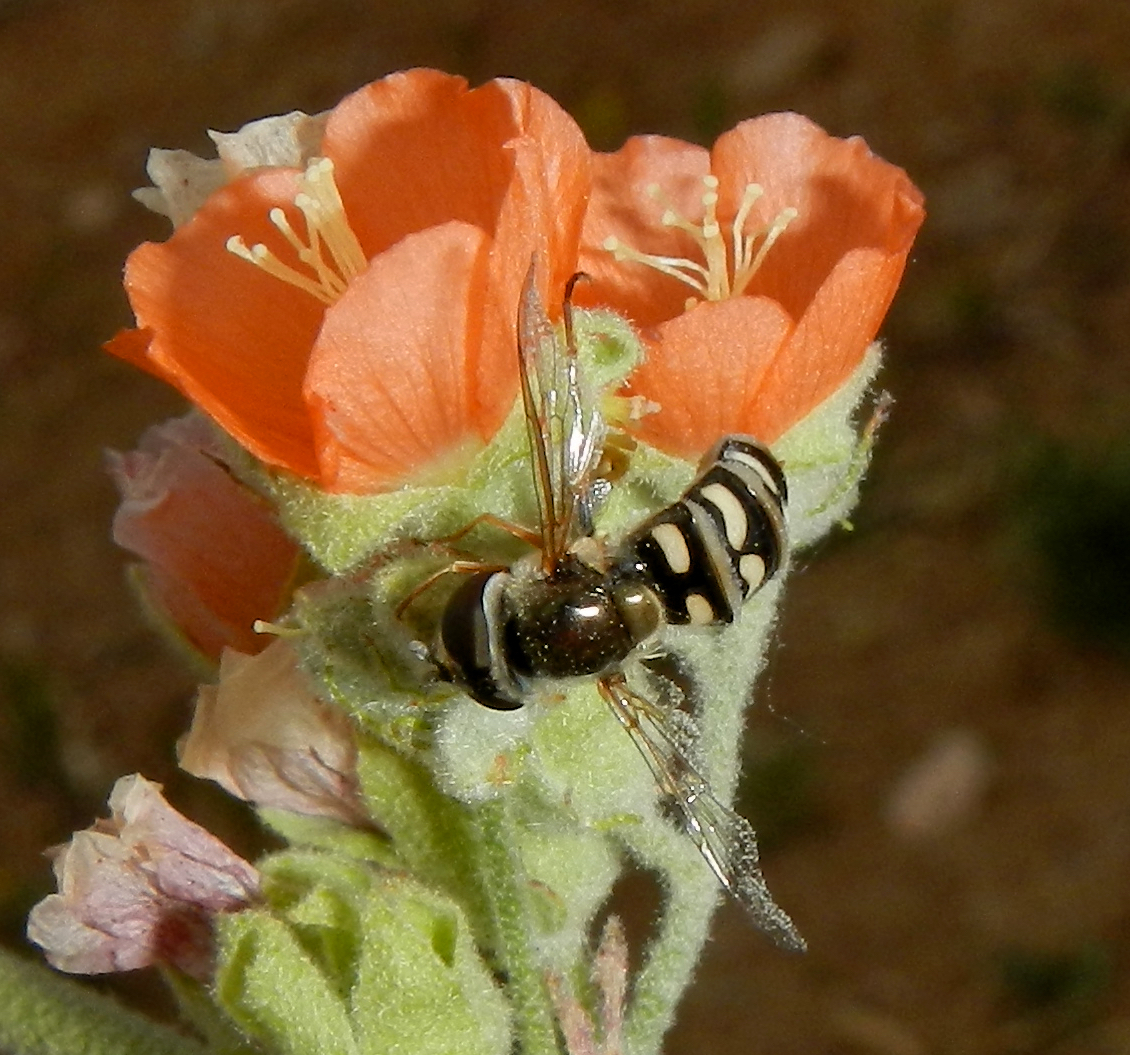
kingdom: Animalia
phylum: Arthropoda
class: Insecta
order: Diptera
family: Syrphidae
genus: Eupeodes
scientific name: Eupeodes volucris
